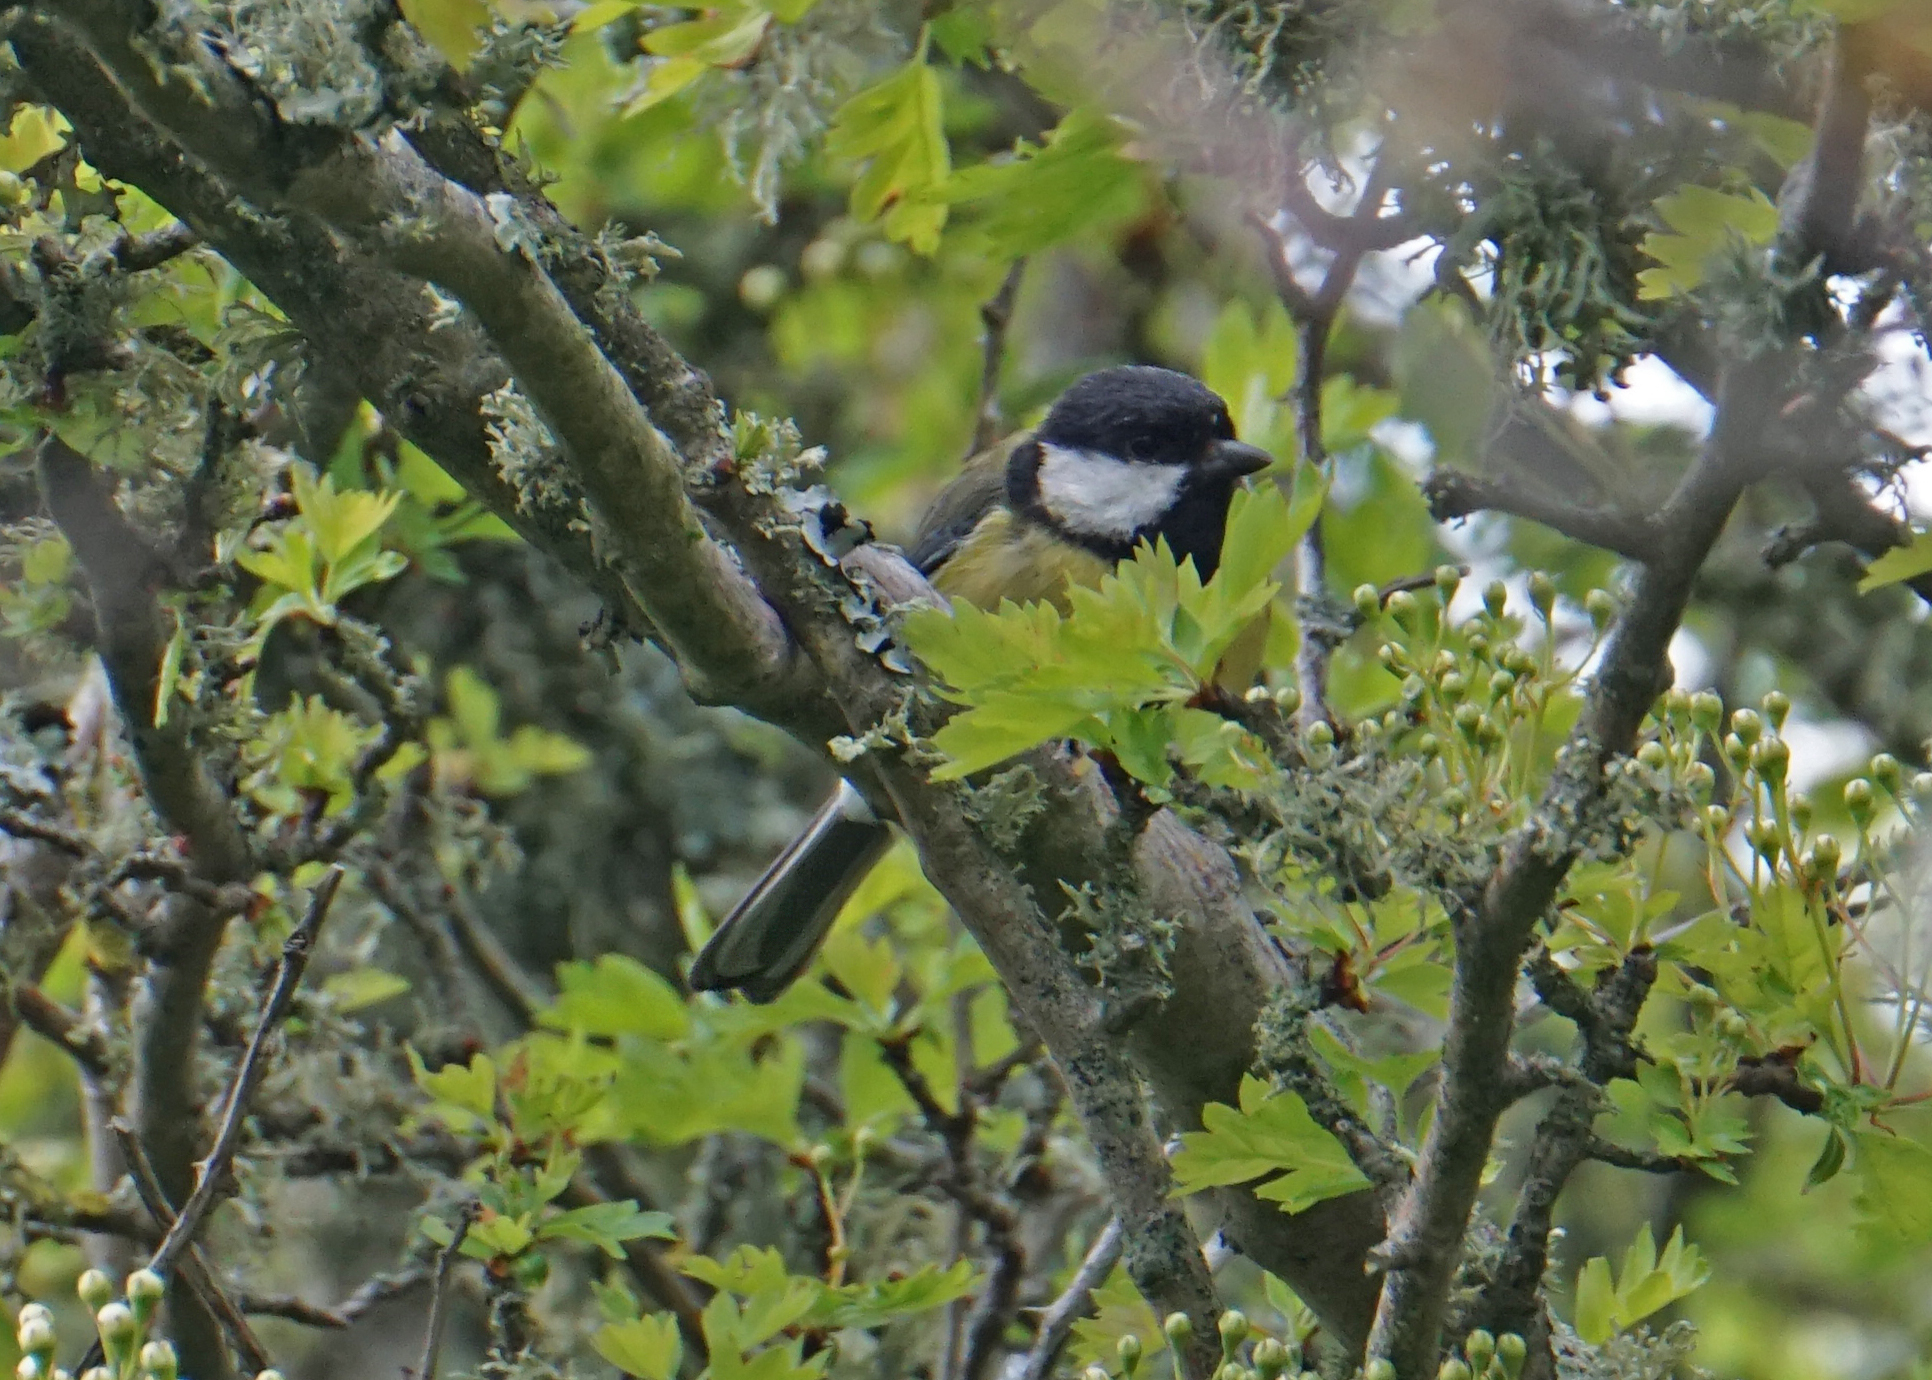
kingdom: Animalia
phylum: Chordata
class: Aves
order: Passeriformes
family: Paridae
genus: Parus
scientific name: Parus major
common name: Great tit
